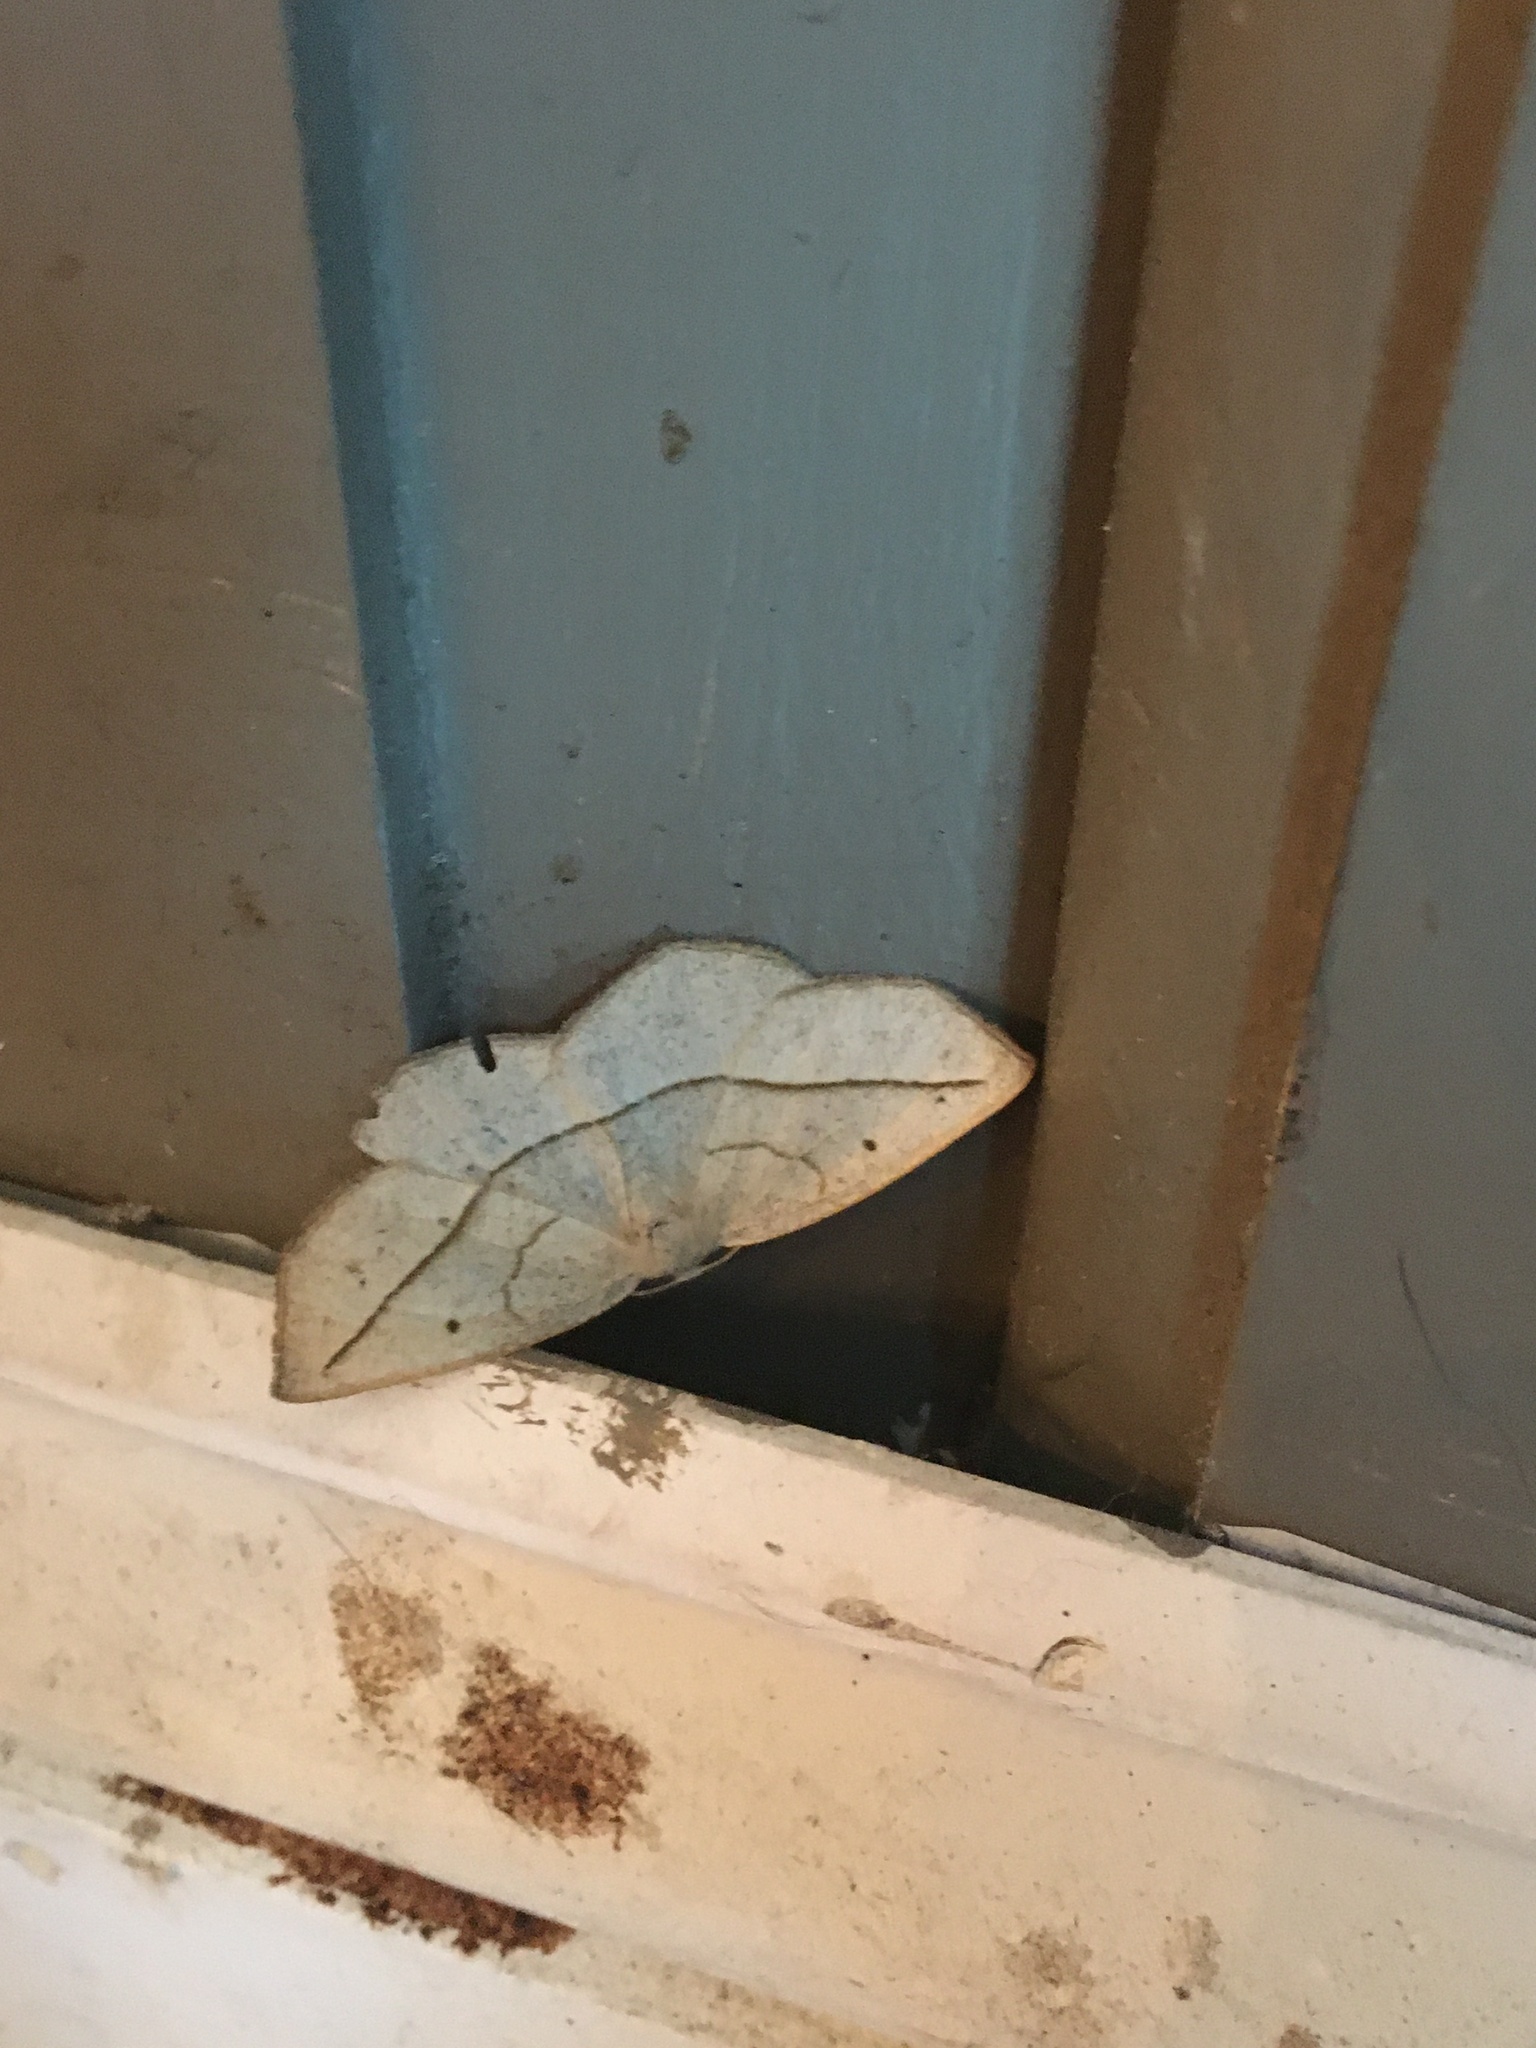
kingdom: Animalia
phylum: Arthropoda
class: Insecta
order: Lepidoptera
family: Geometridae
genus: Eusarca
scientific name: Eusarca confusaria
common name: Confused eusarca
